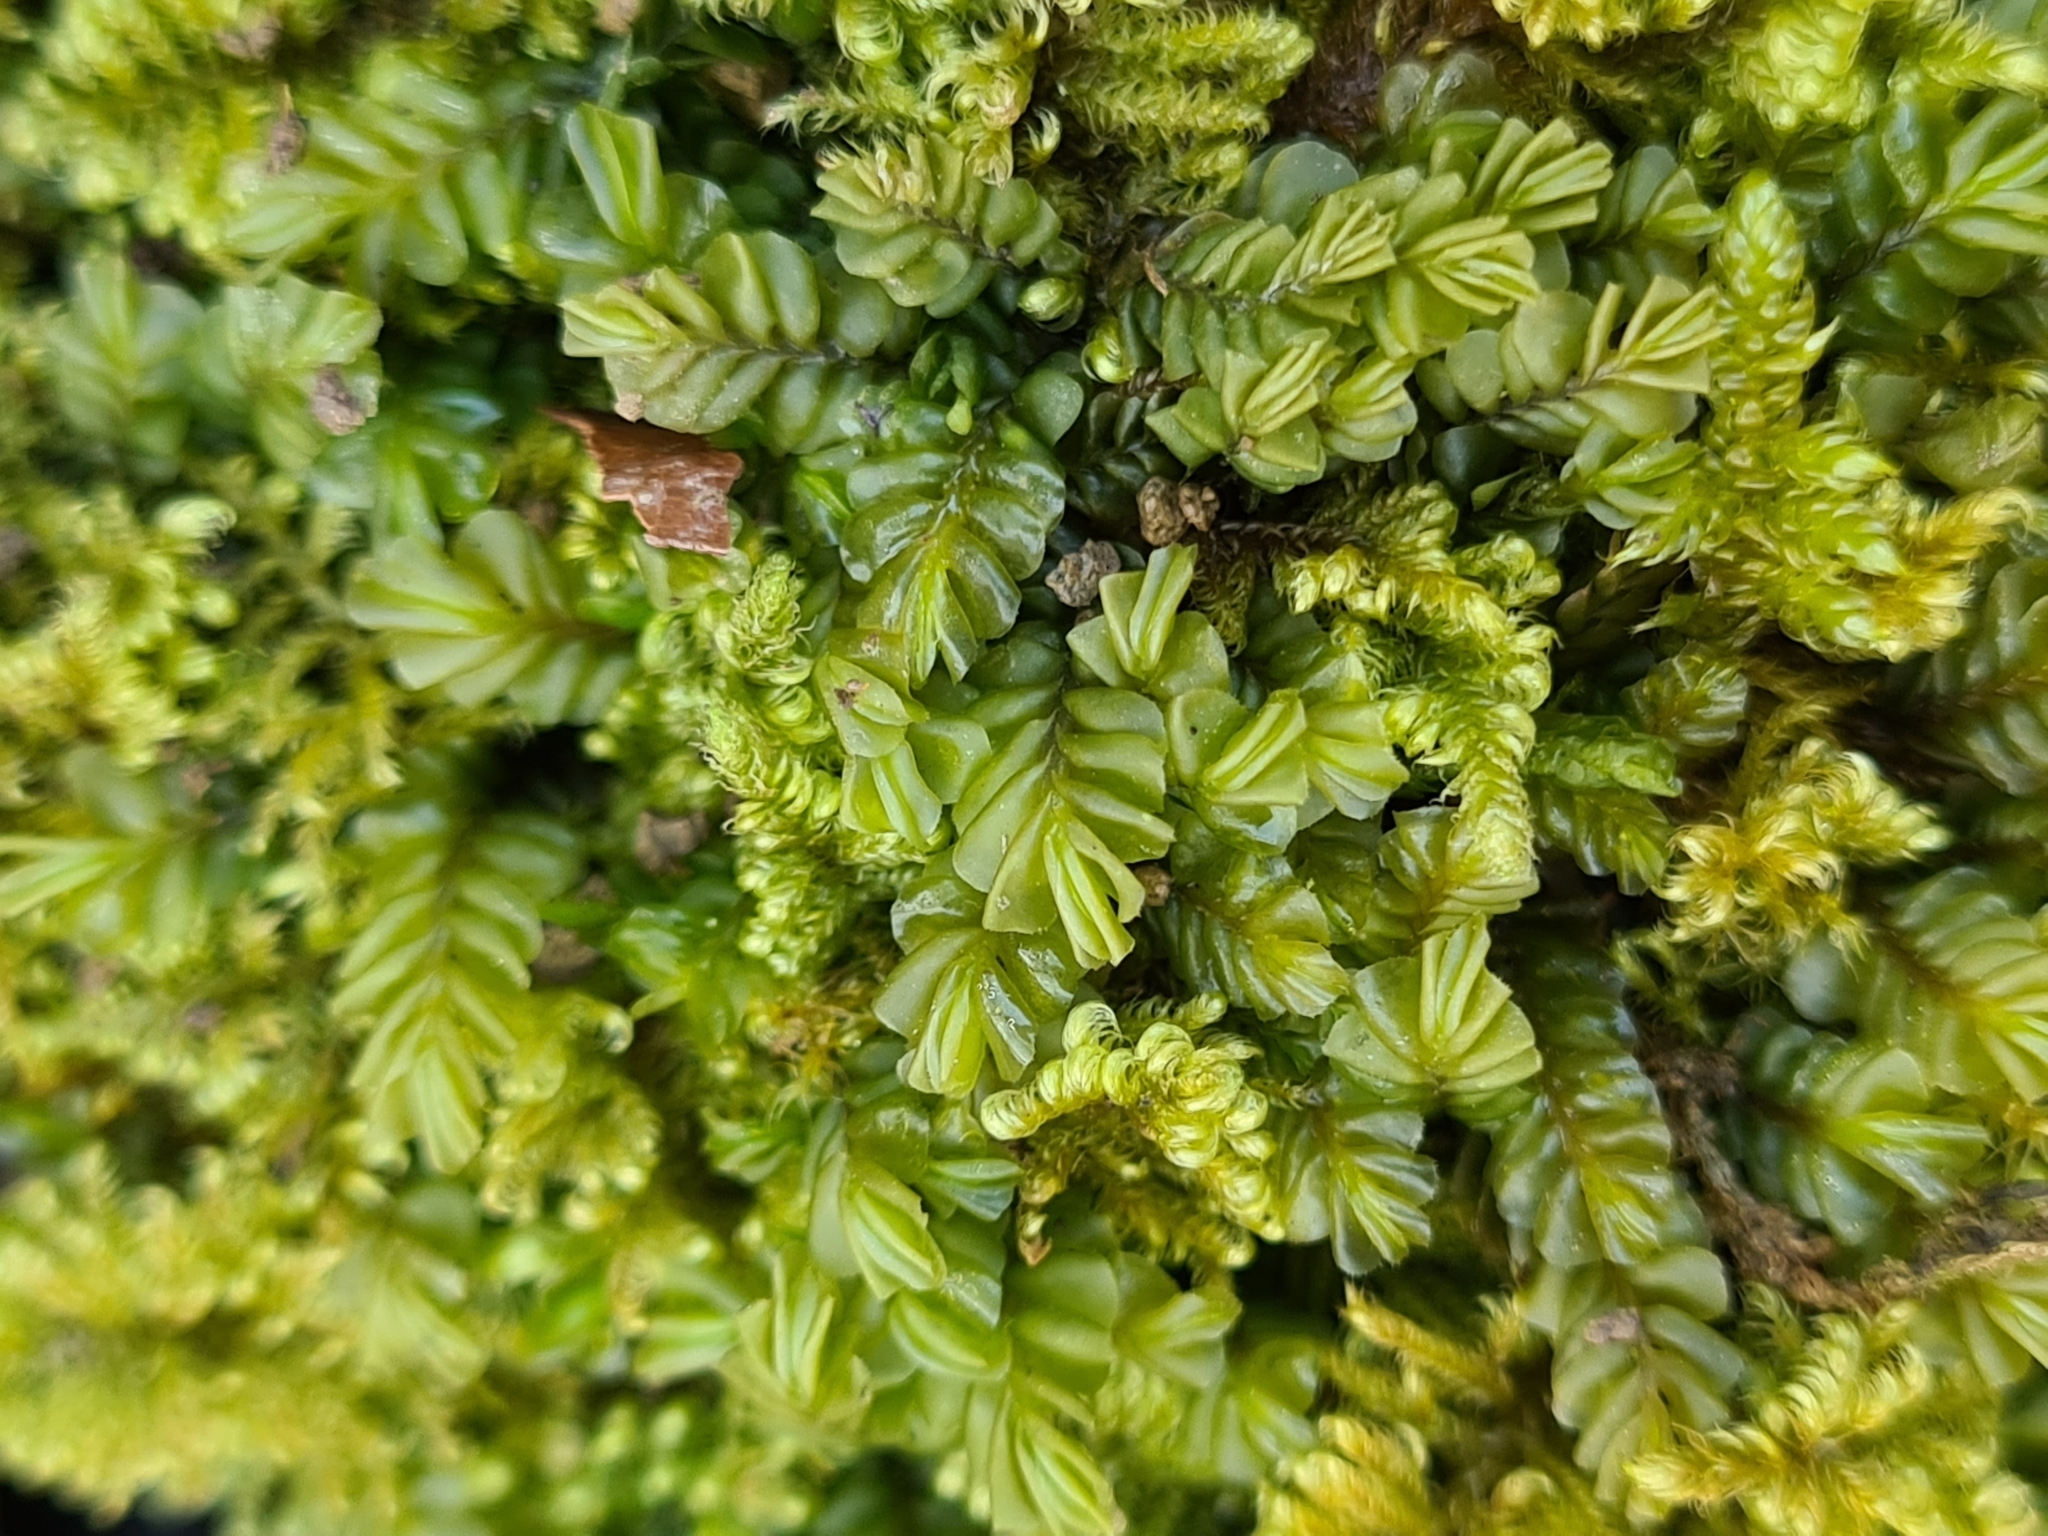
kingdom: Plantae
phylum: Marchantiophyta
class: Jungermanniopsida
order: Jungermanniales
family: Plagiochilaceae
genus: Plagiochila
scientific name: Plagiochila porelloides
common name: Lesser featherwort
